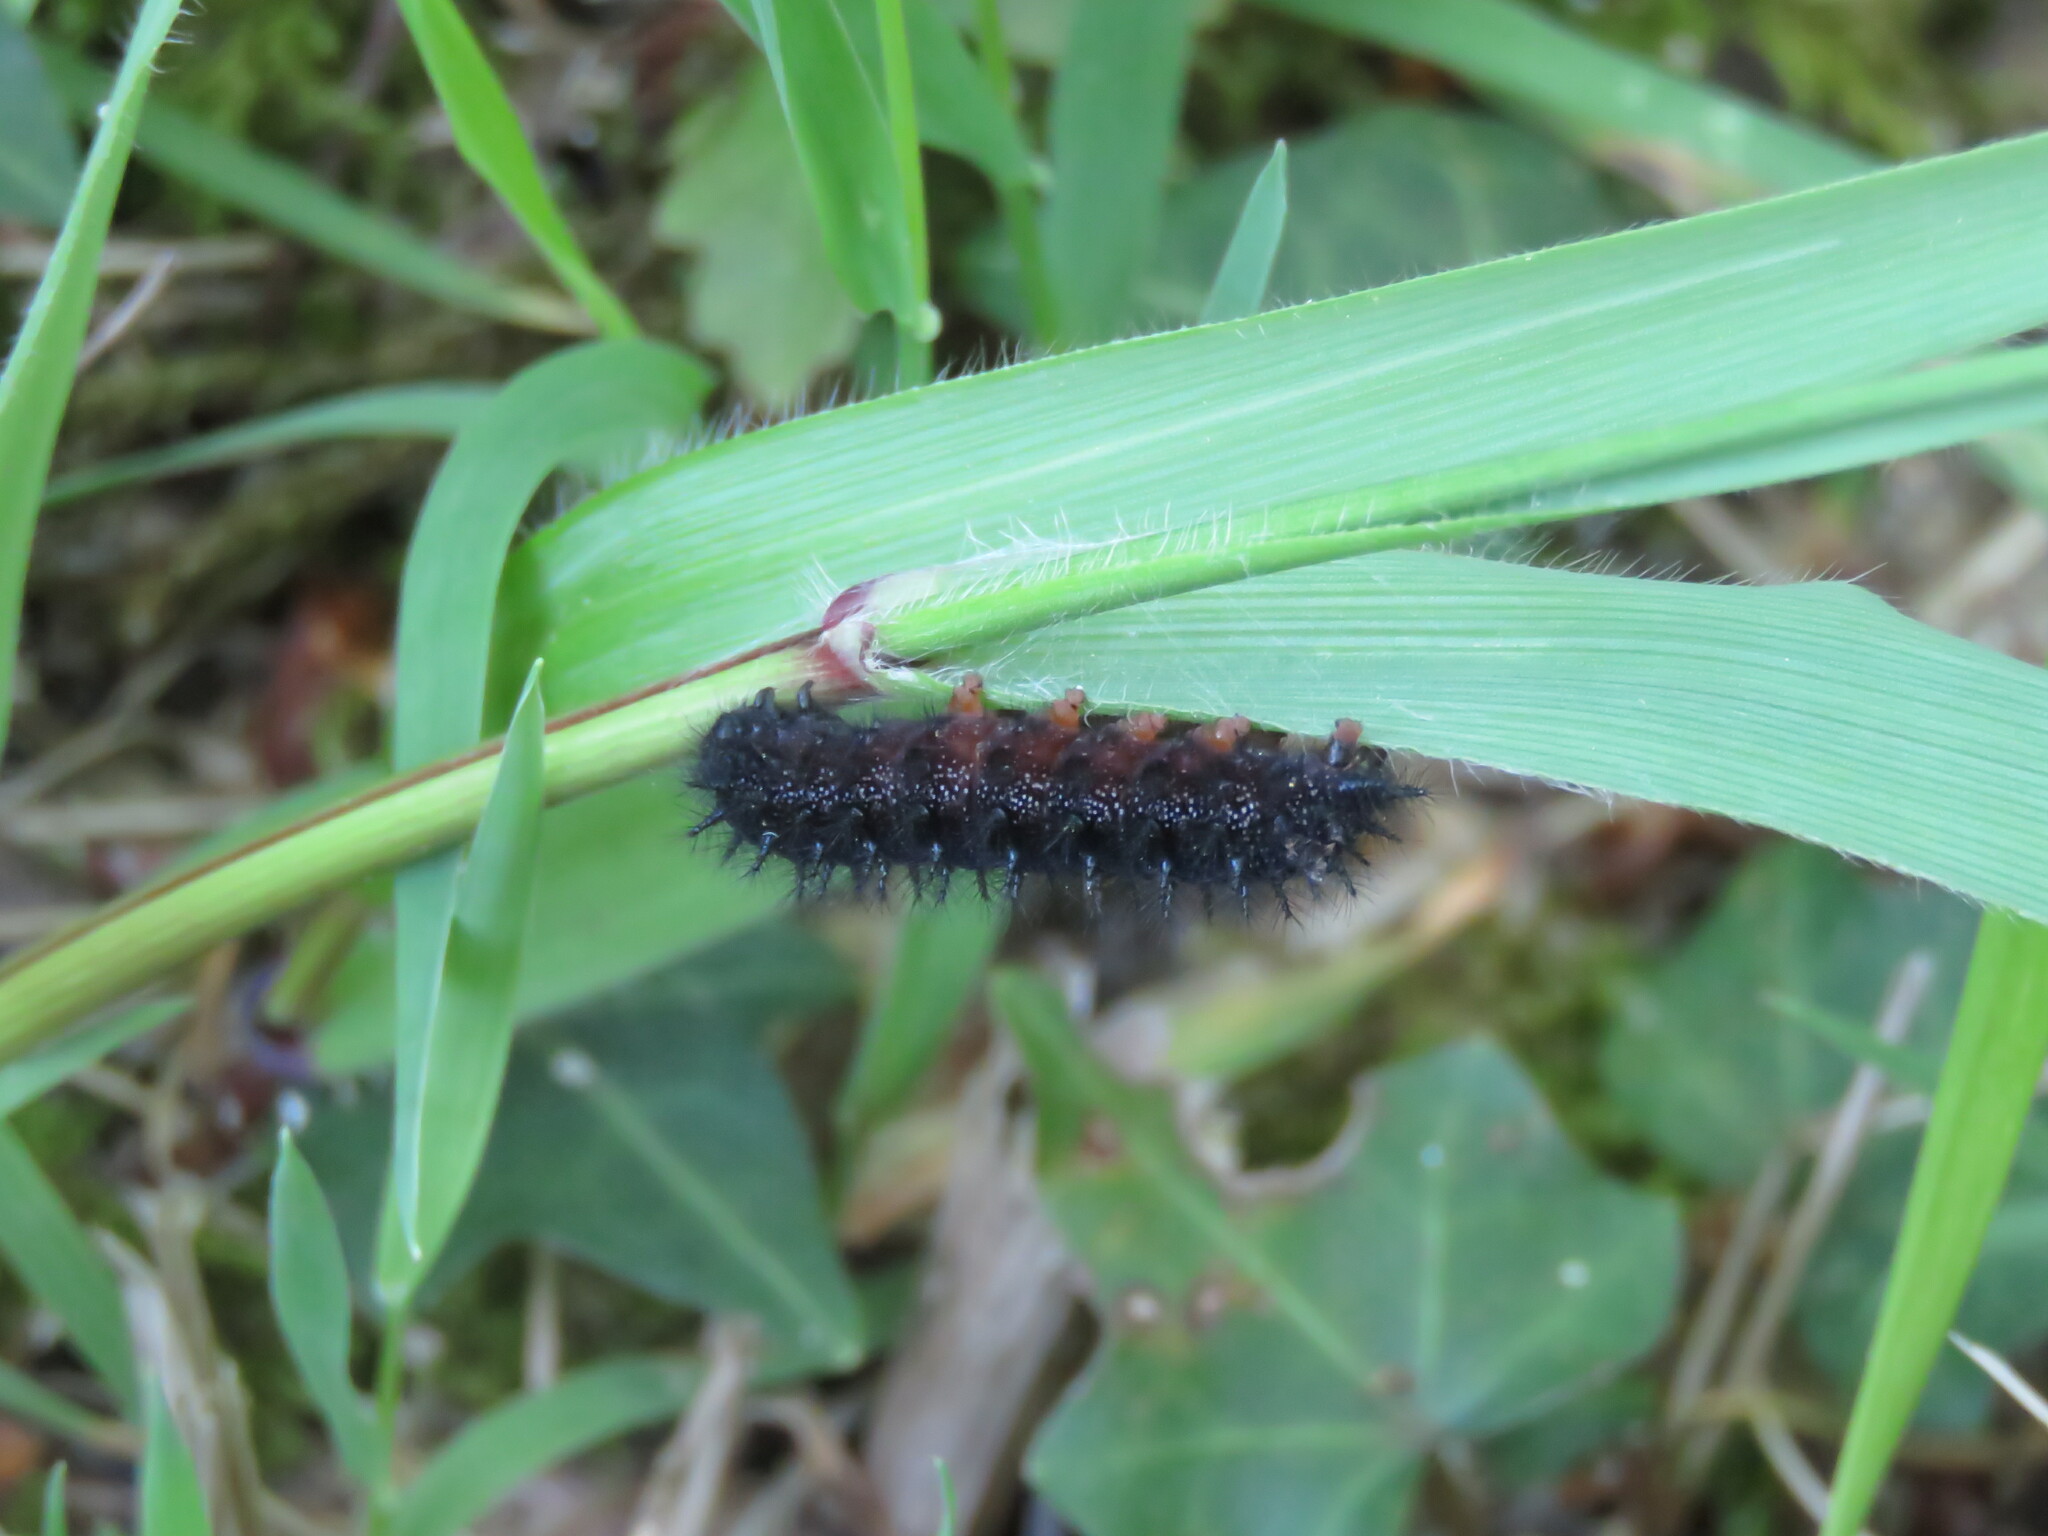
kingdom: Animalia
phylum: Arthropoda
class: Insecta
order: Lepidoptera
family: Nymphalidae
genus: Euphydryas
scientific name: Euphydryas aurinia
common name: Marsh fritillary
